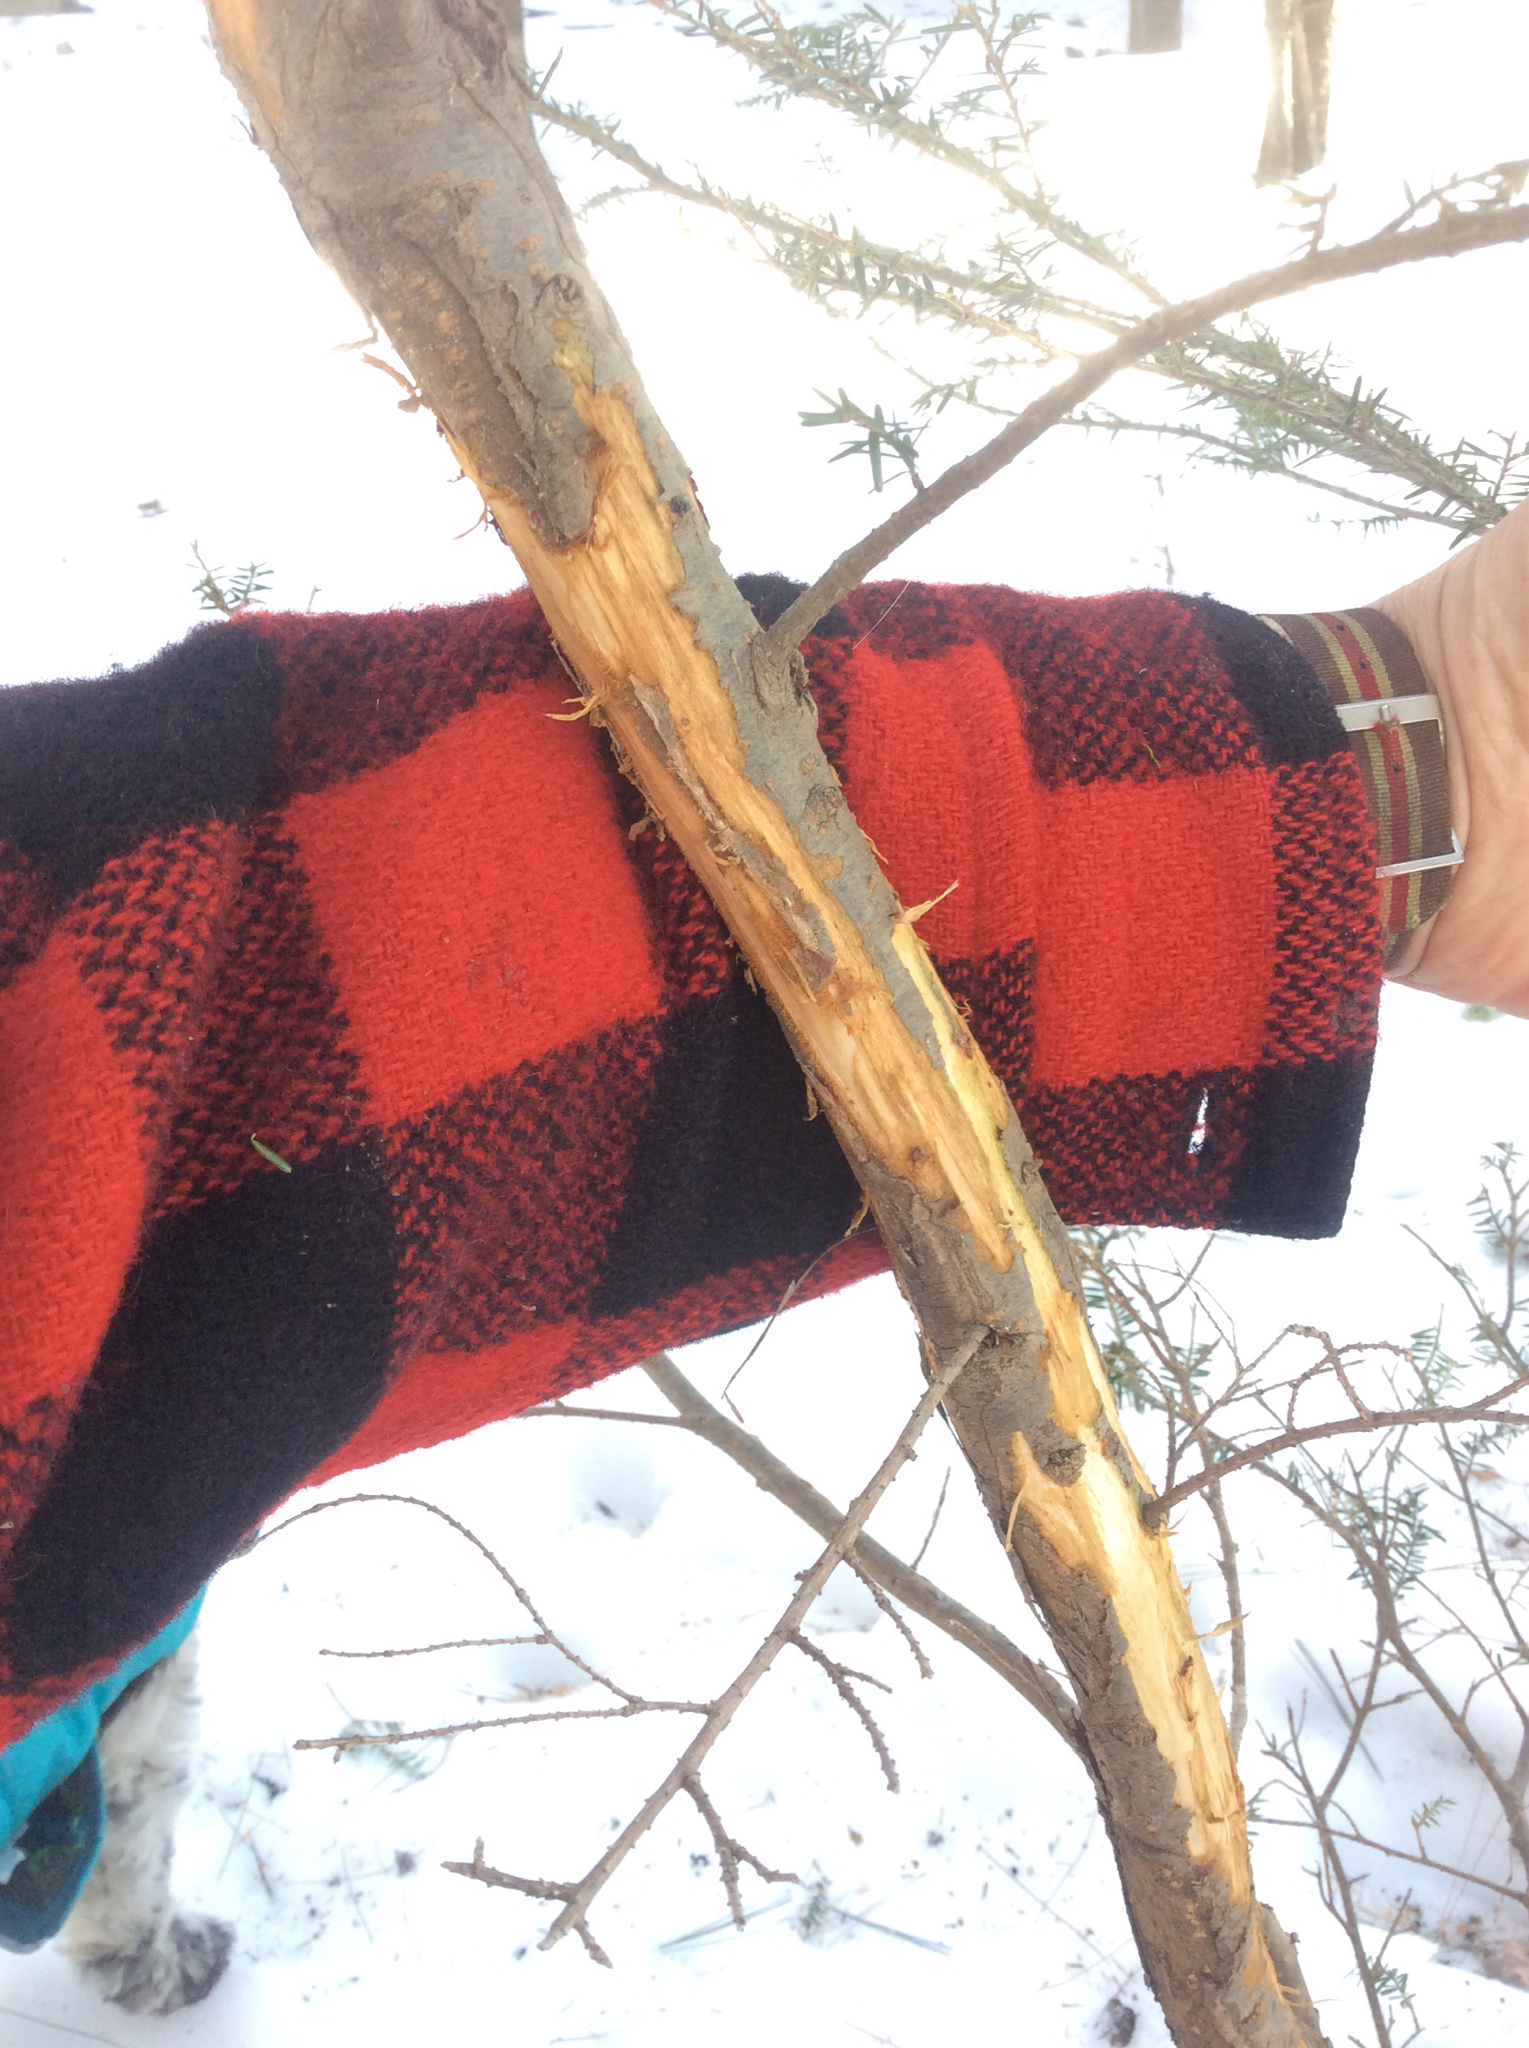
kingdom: Animalia
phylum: Chordata
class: Mammalia
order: Artiodactyla
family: Cervidae
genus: Odocoileus
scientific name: Odocoileus virginianus
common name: White-tailed deer
